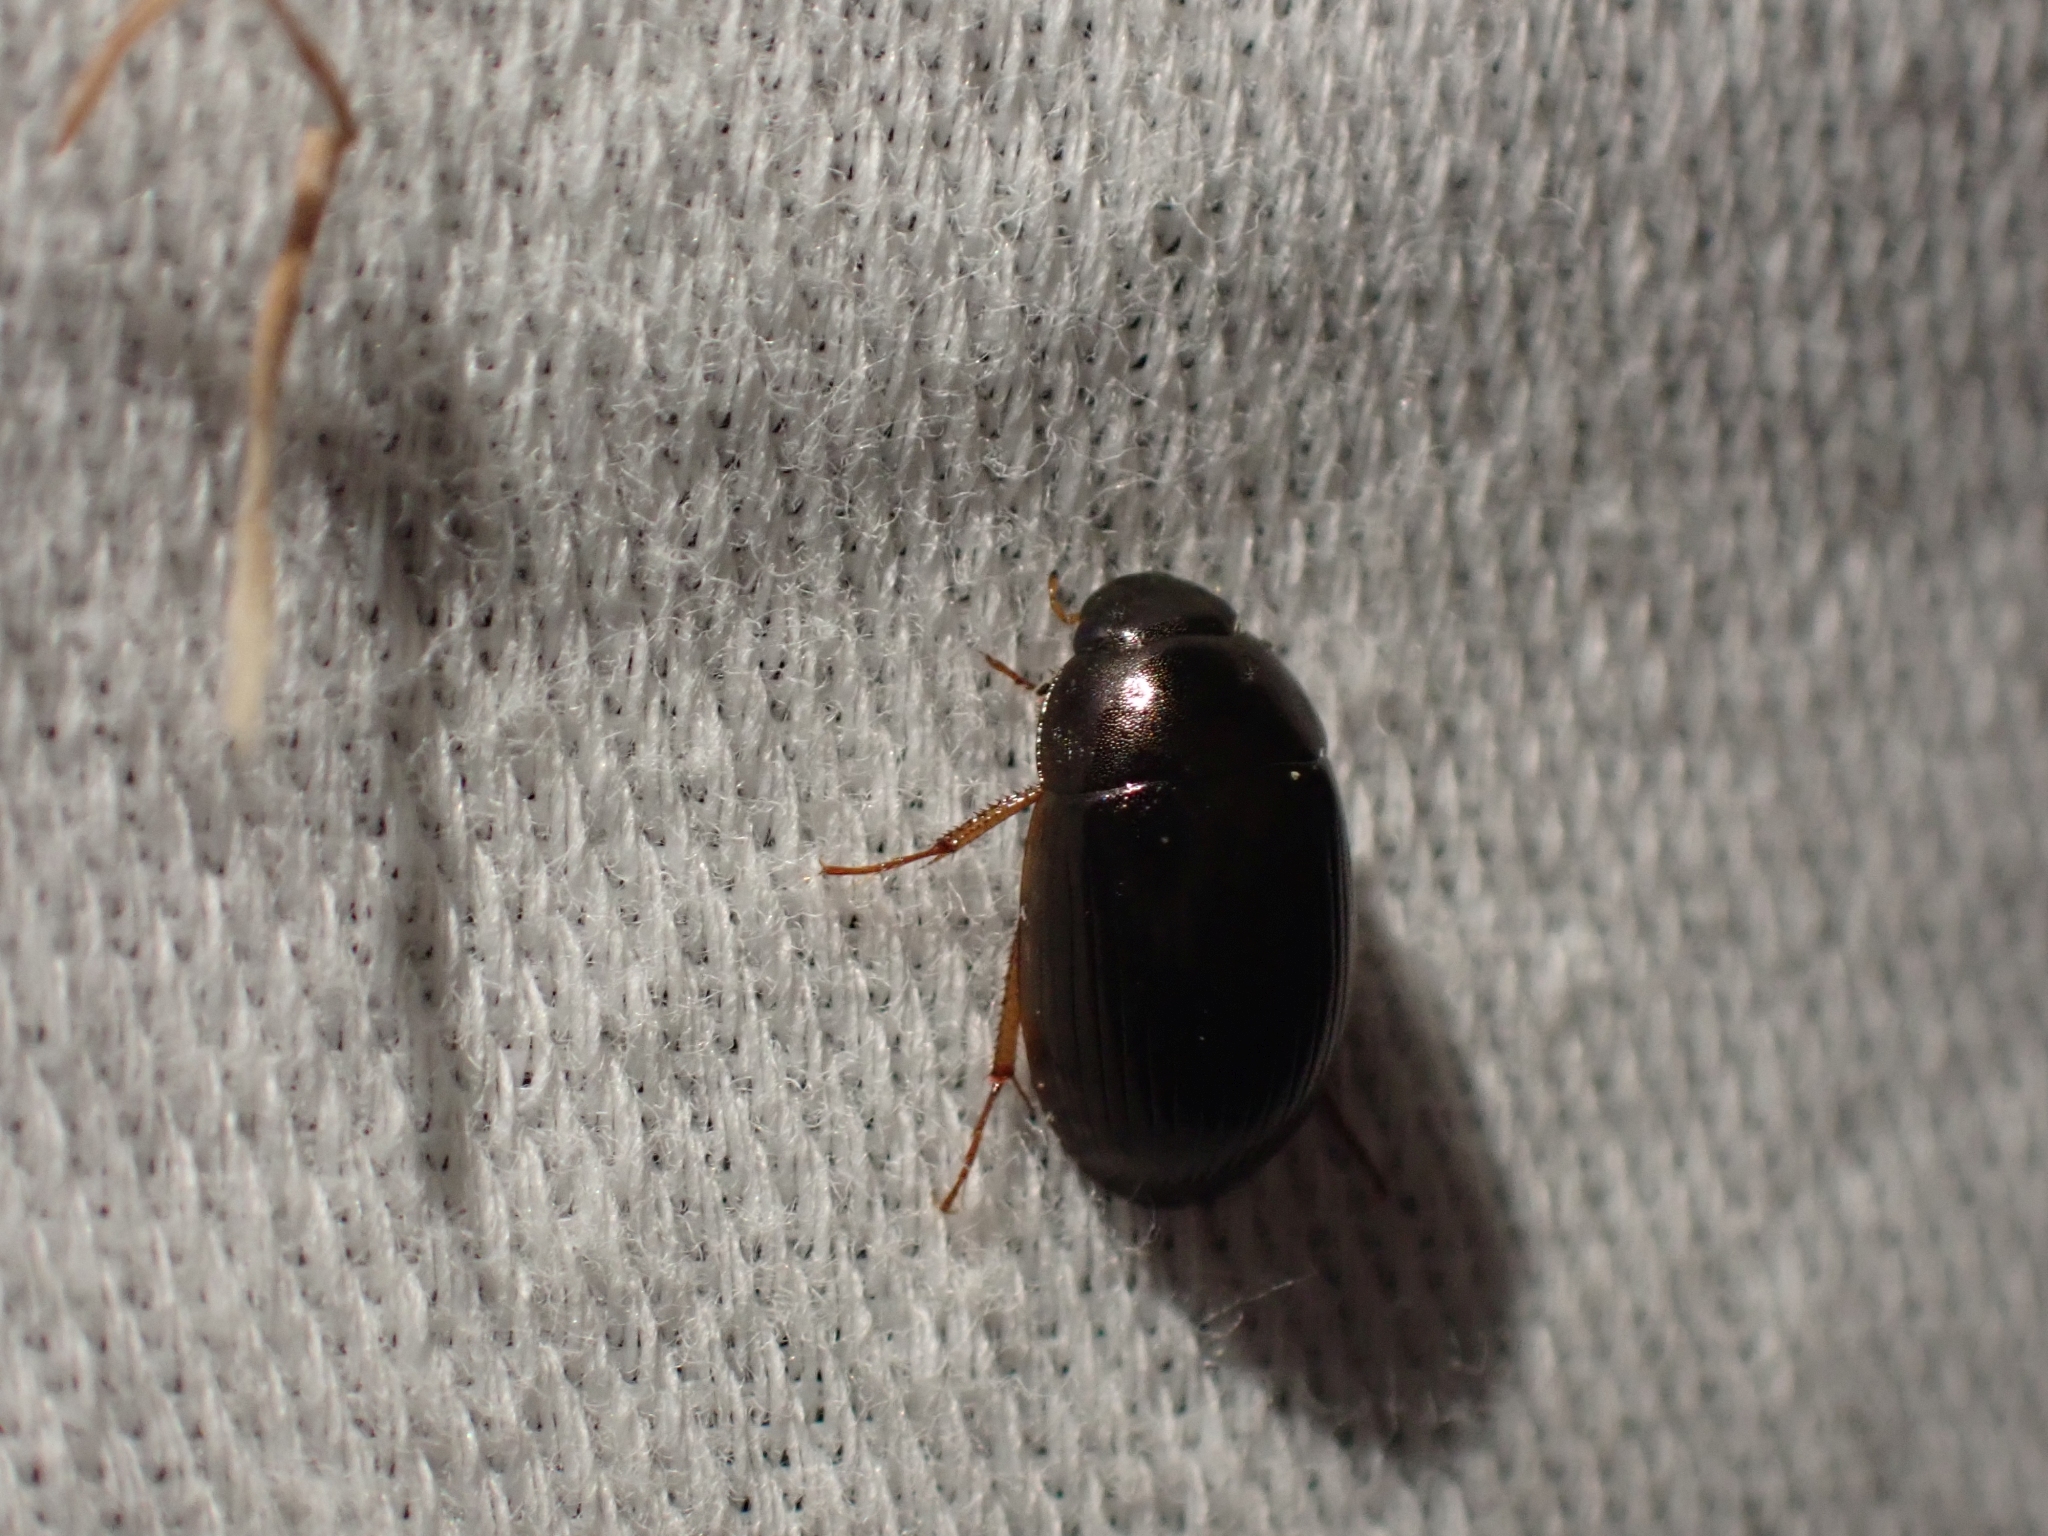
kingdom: Animalia
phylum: Arthropoda
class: Insecta
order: Coleoptera
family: Hydrophilidae
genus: Hydrobius
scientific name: Hydrobius fuscipes
